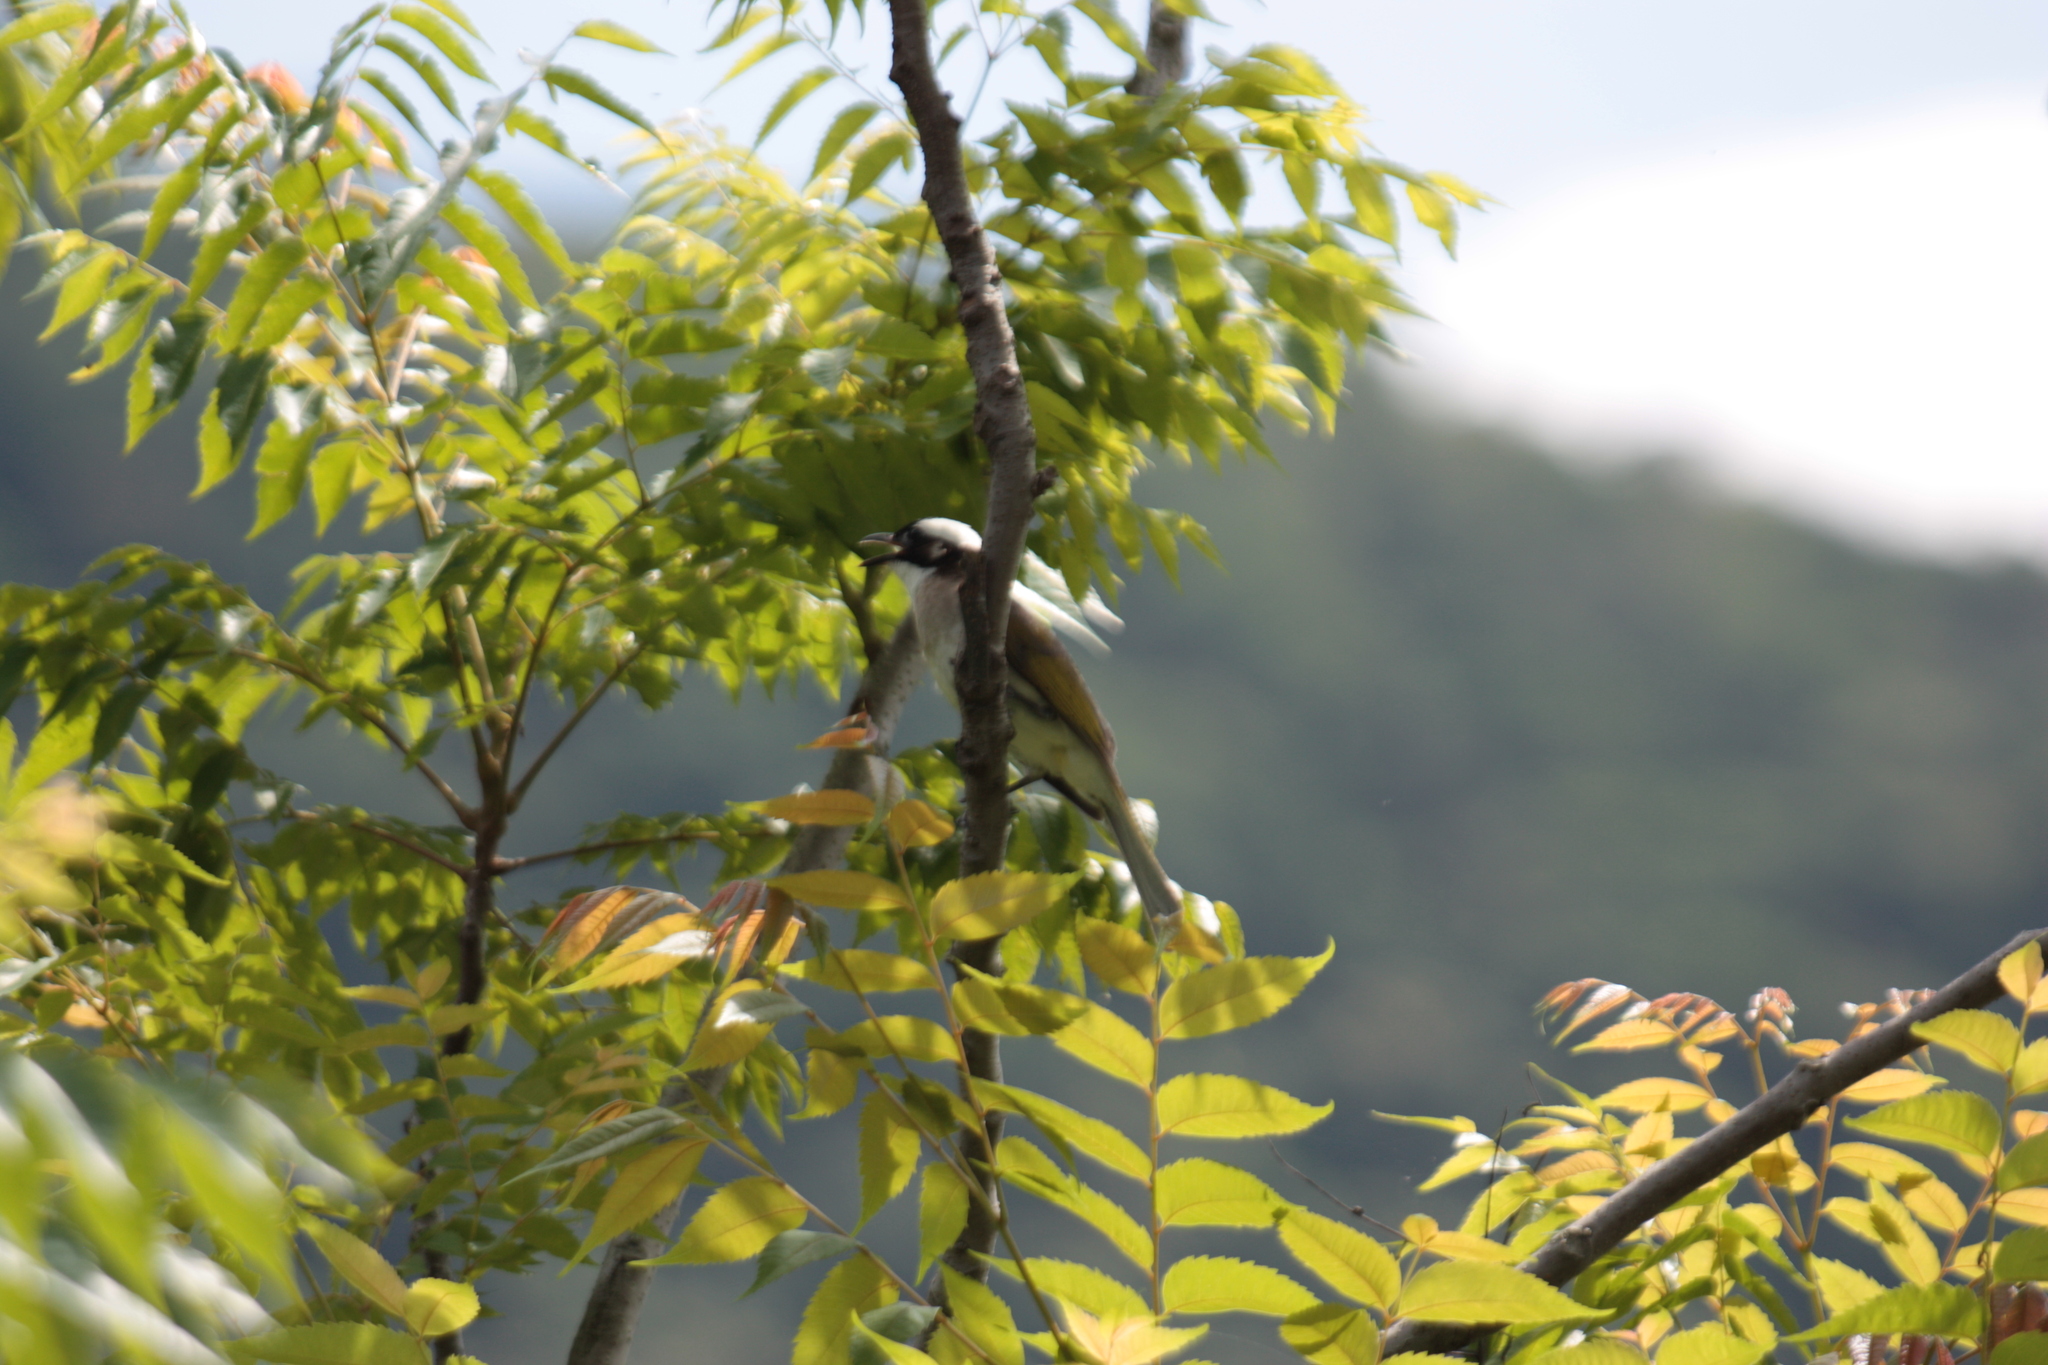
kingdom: Animalia
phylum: Chordata
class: Aves
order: Passeriformes
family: Pycnonotidae
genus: Pycnonotus
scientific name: Pycnonotus sinensis
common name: Light-vented bulbul
